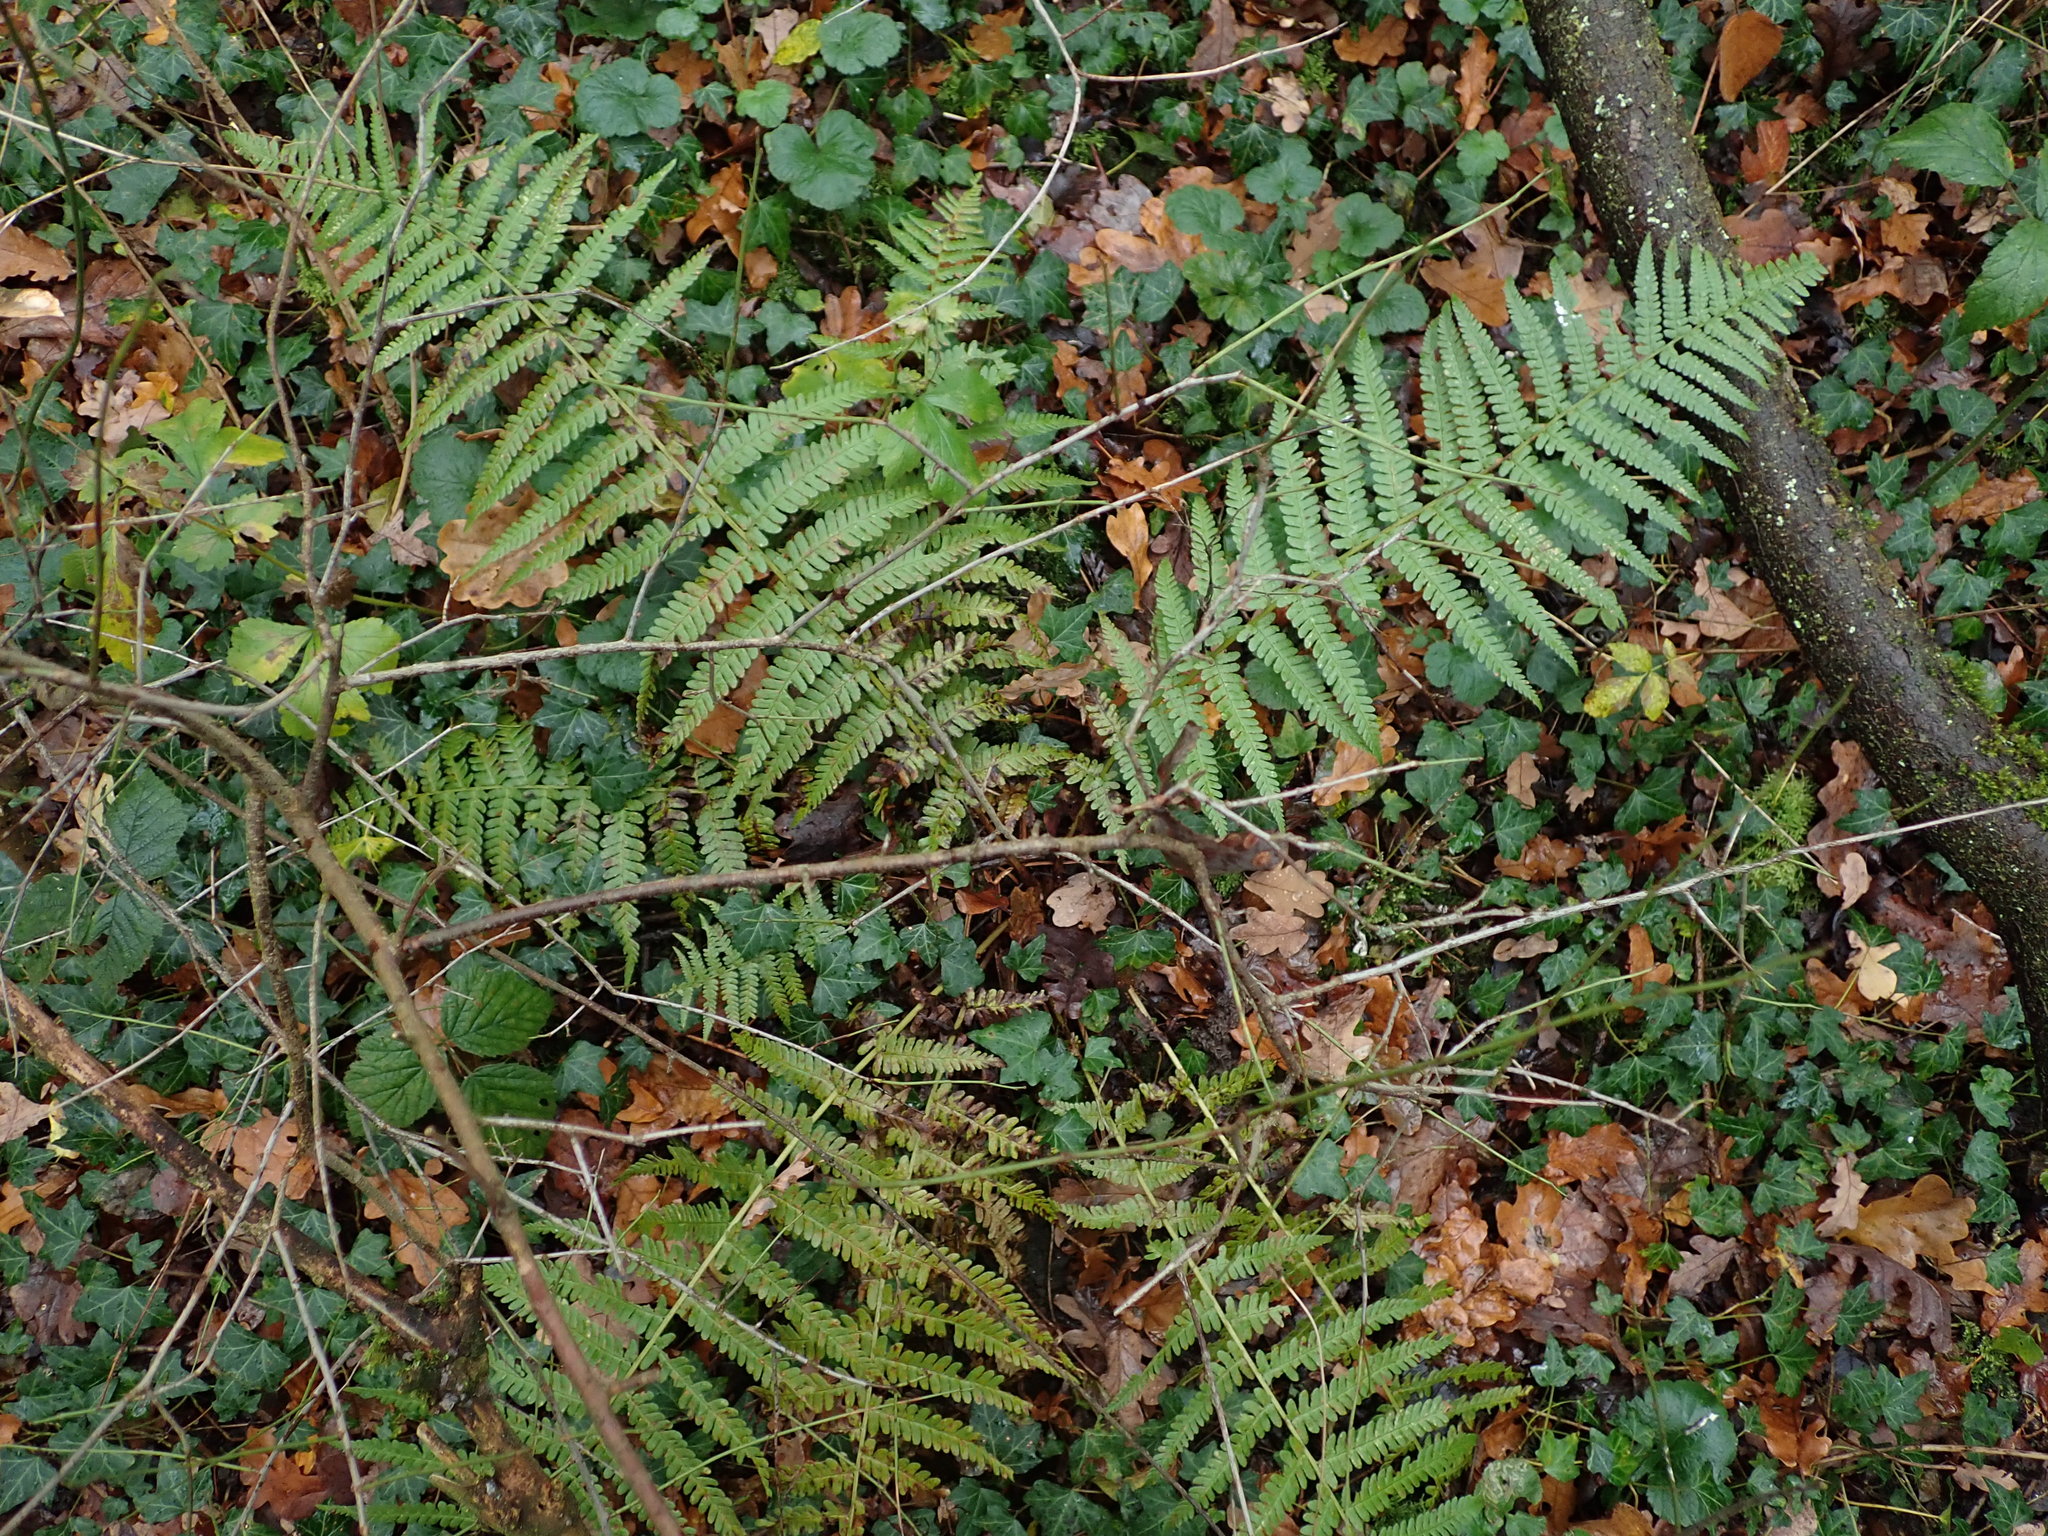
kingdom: Plantae
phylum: Tracheophyta
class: Polypodiopsida
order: Polypodiales
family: Dryopteridaceae
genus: Dryopteris
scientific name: Dryopteris filix-mas
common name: Male fern
